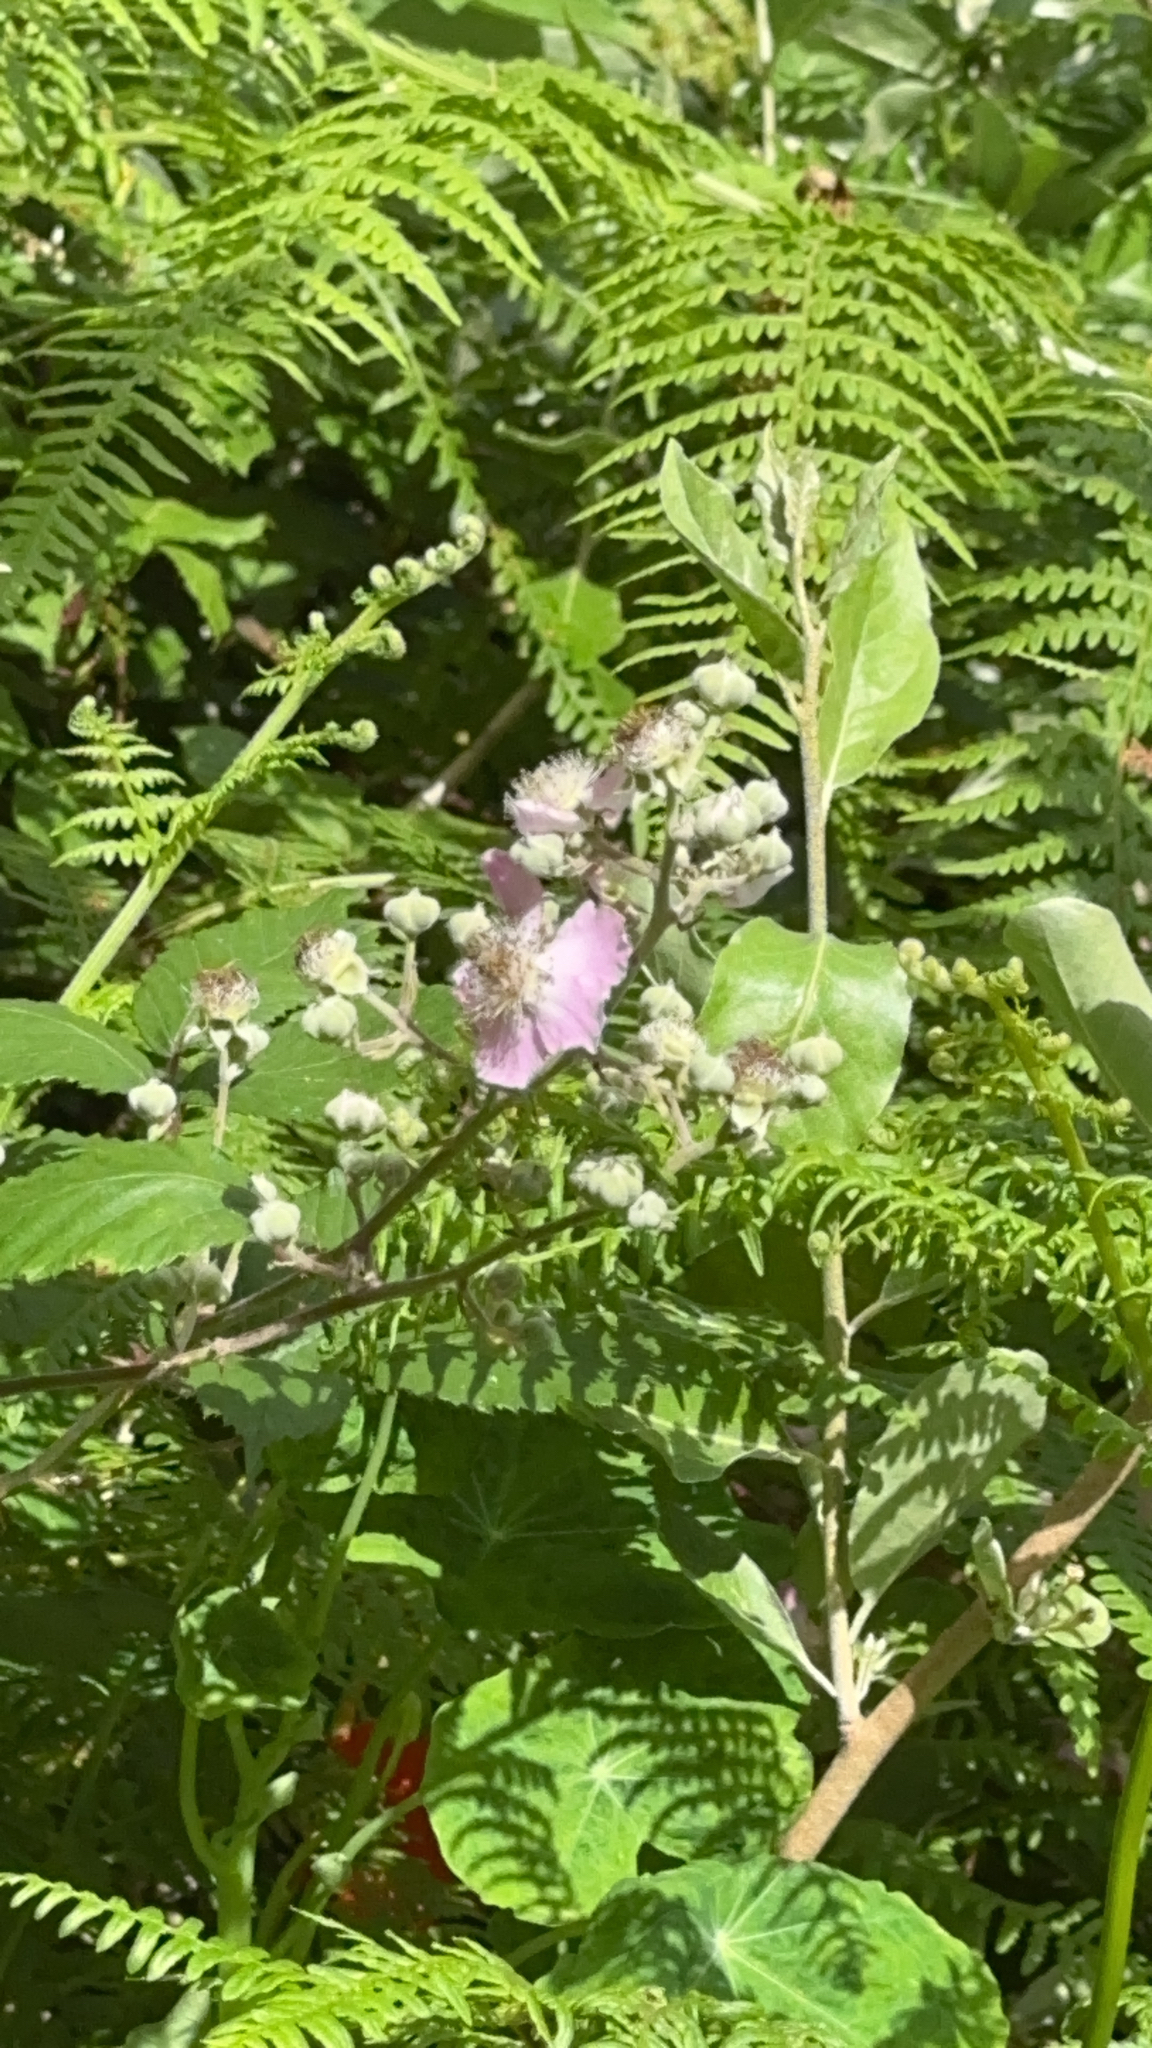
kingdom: Plantae
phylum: Tracheophyta
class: Magnoliopsida
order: Rosales
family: Rosaceae
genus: Rubus
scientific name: Rubus ulmifolius
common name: Elmleaf blackberry
